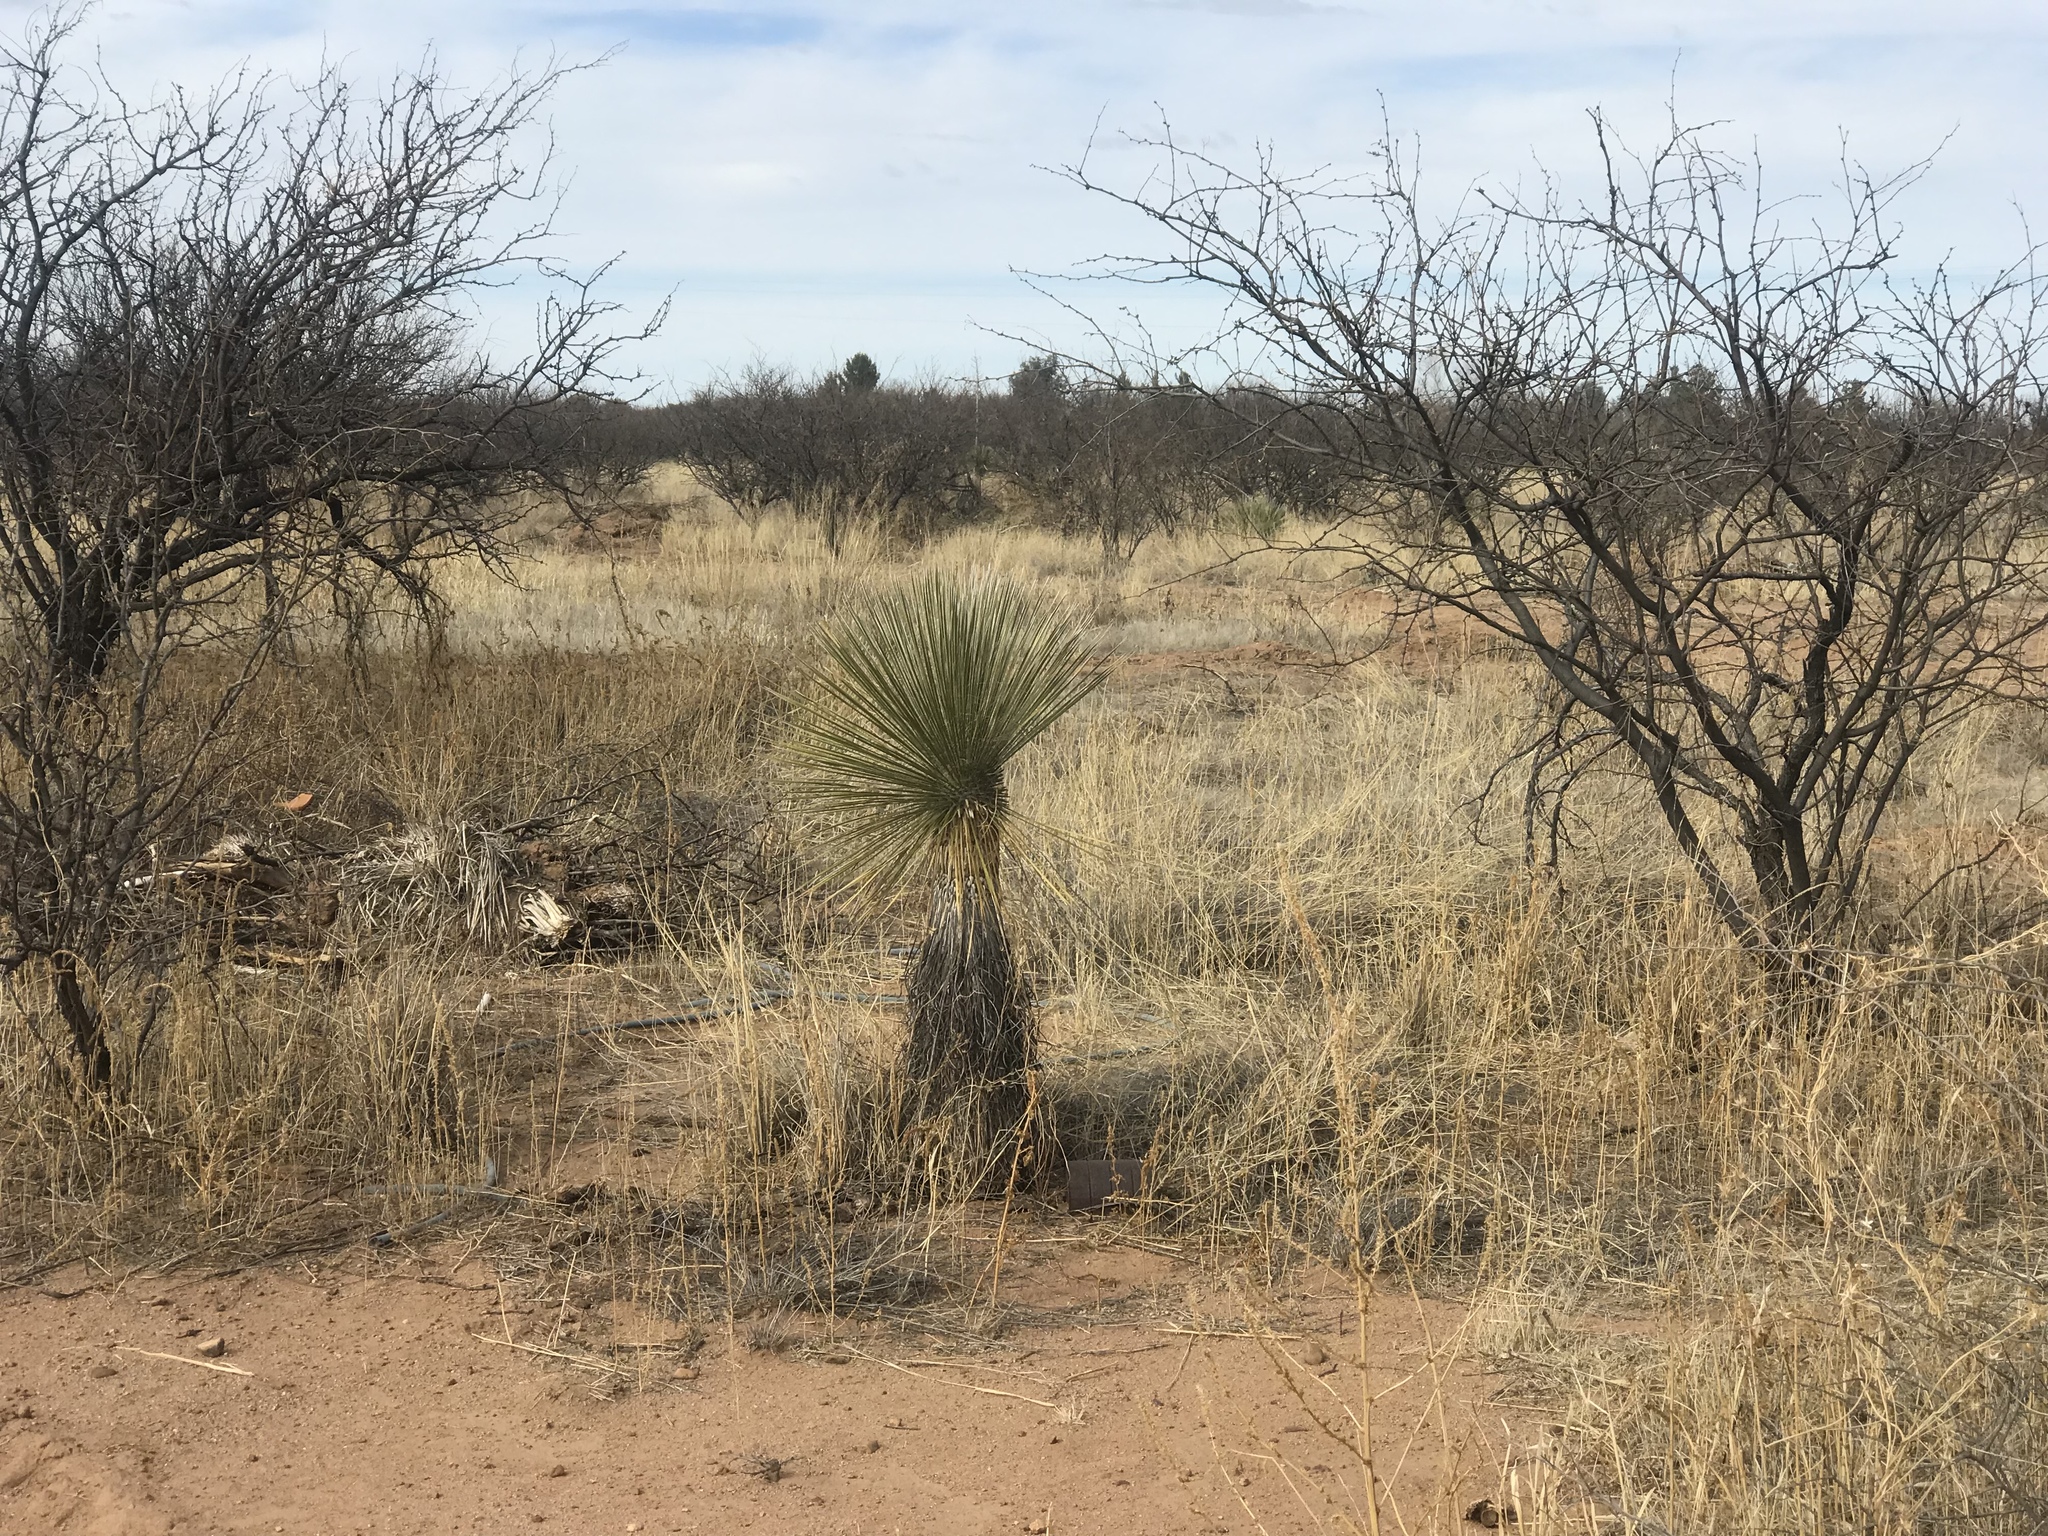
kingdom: Plantae
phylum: Tracheophyta
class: Liliopsida
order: Asparagales
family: Asparagaceae
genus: Yucca
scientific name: Yucca elata
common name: Palmella
